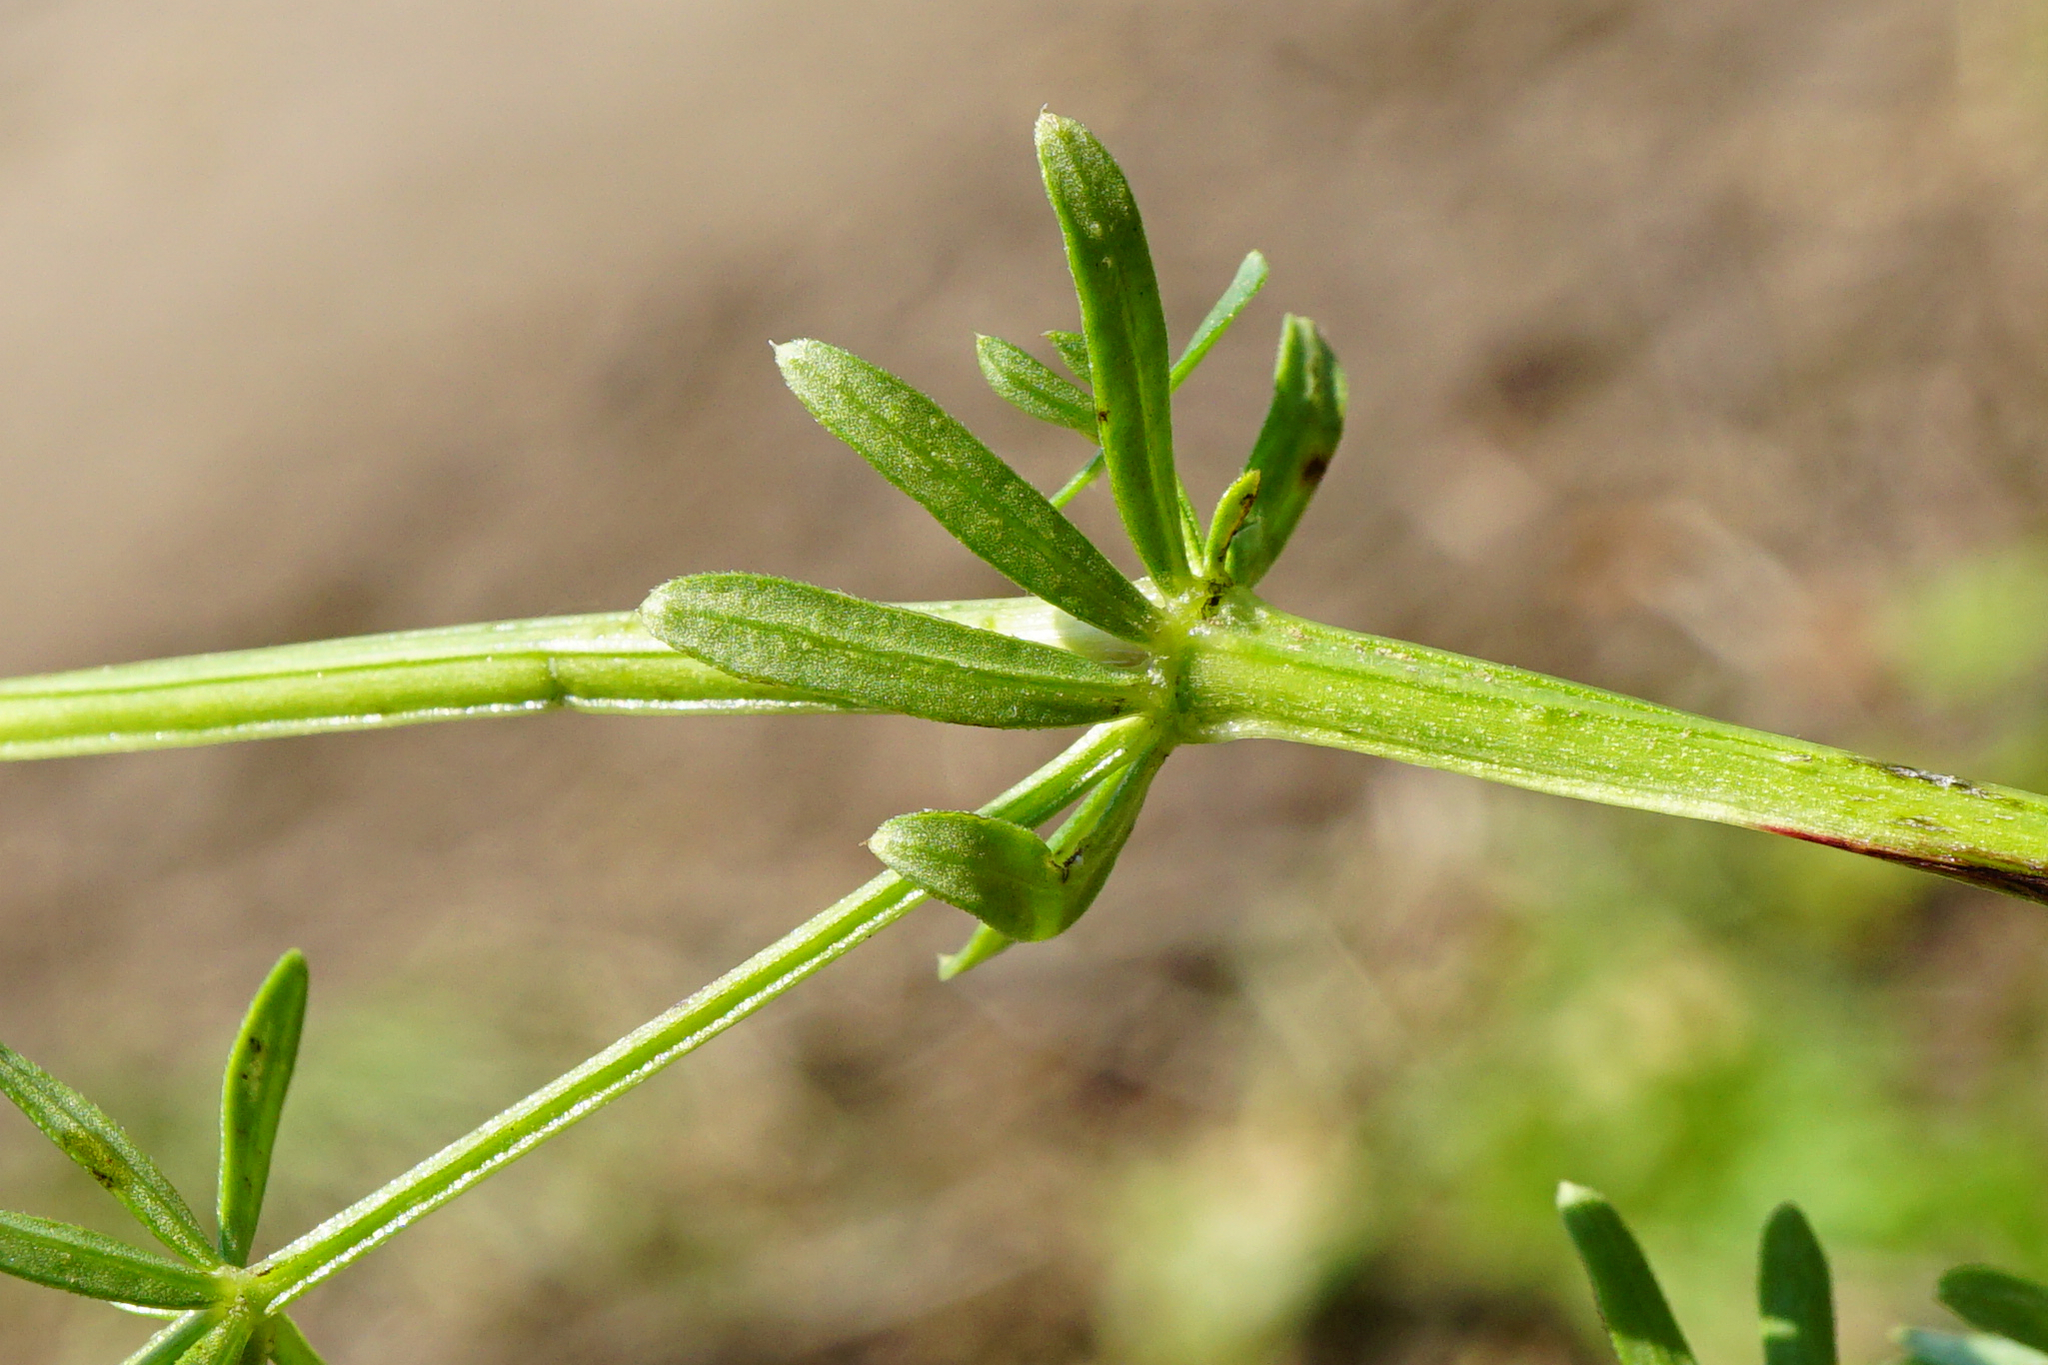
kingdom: Plantae
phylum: Tracheophyta
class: Magnoliopsida
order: Gentianales
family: Rubiaceae
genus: Galium
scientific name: Galium album
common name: White bedstraw
